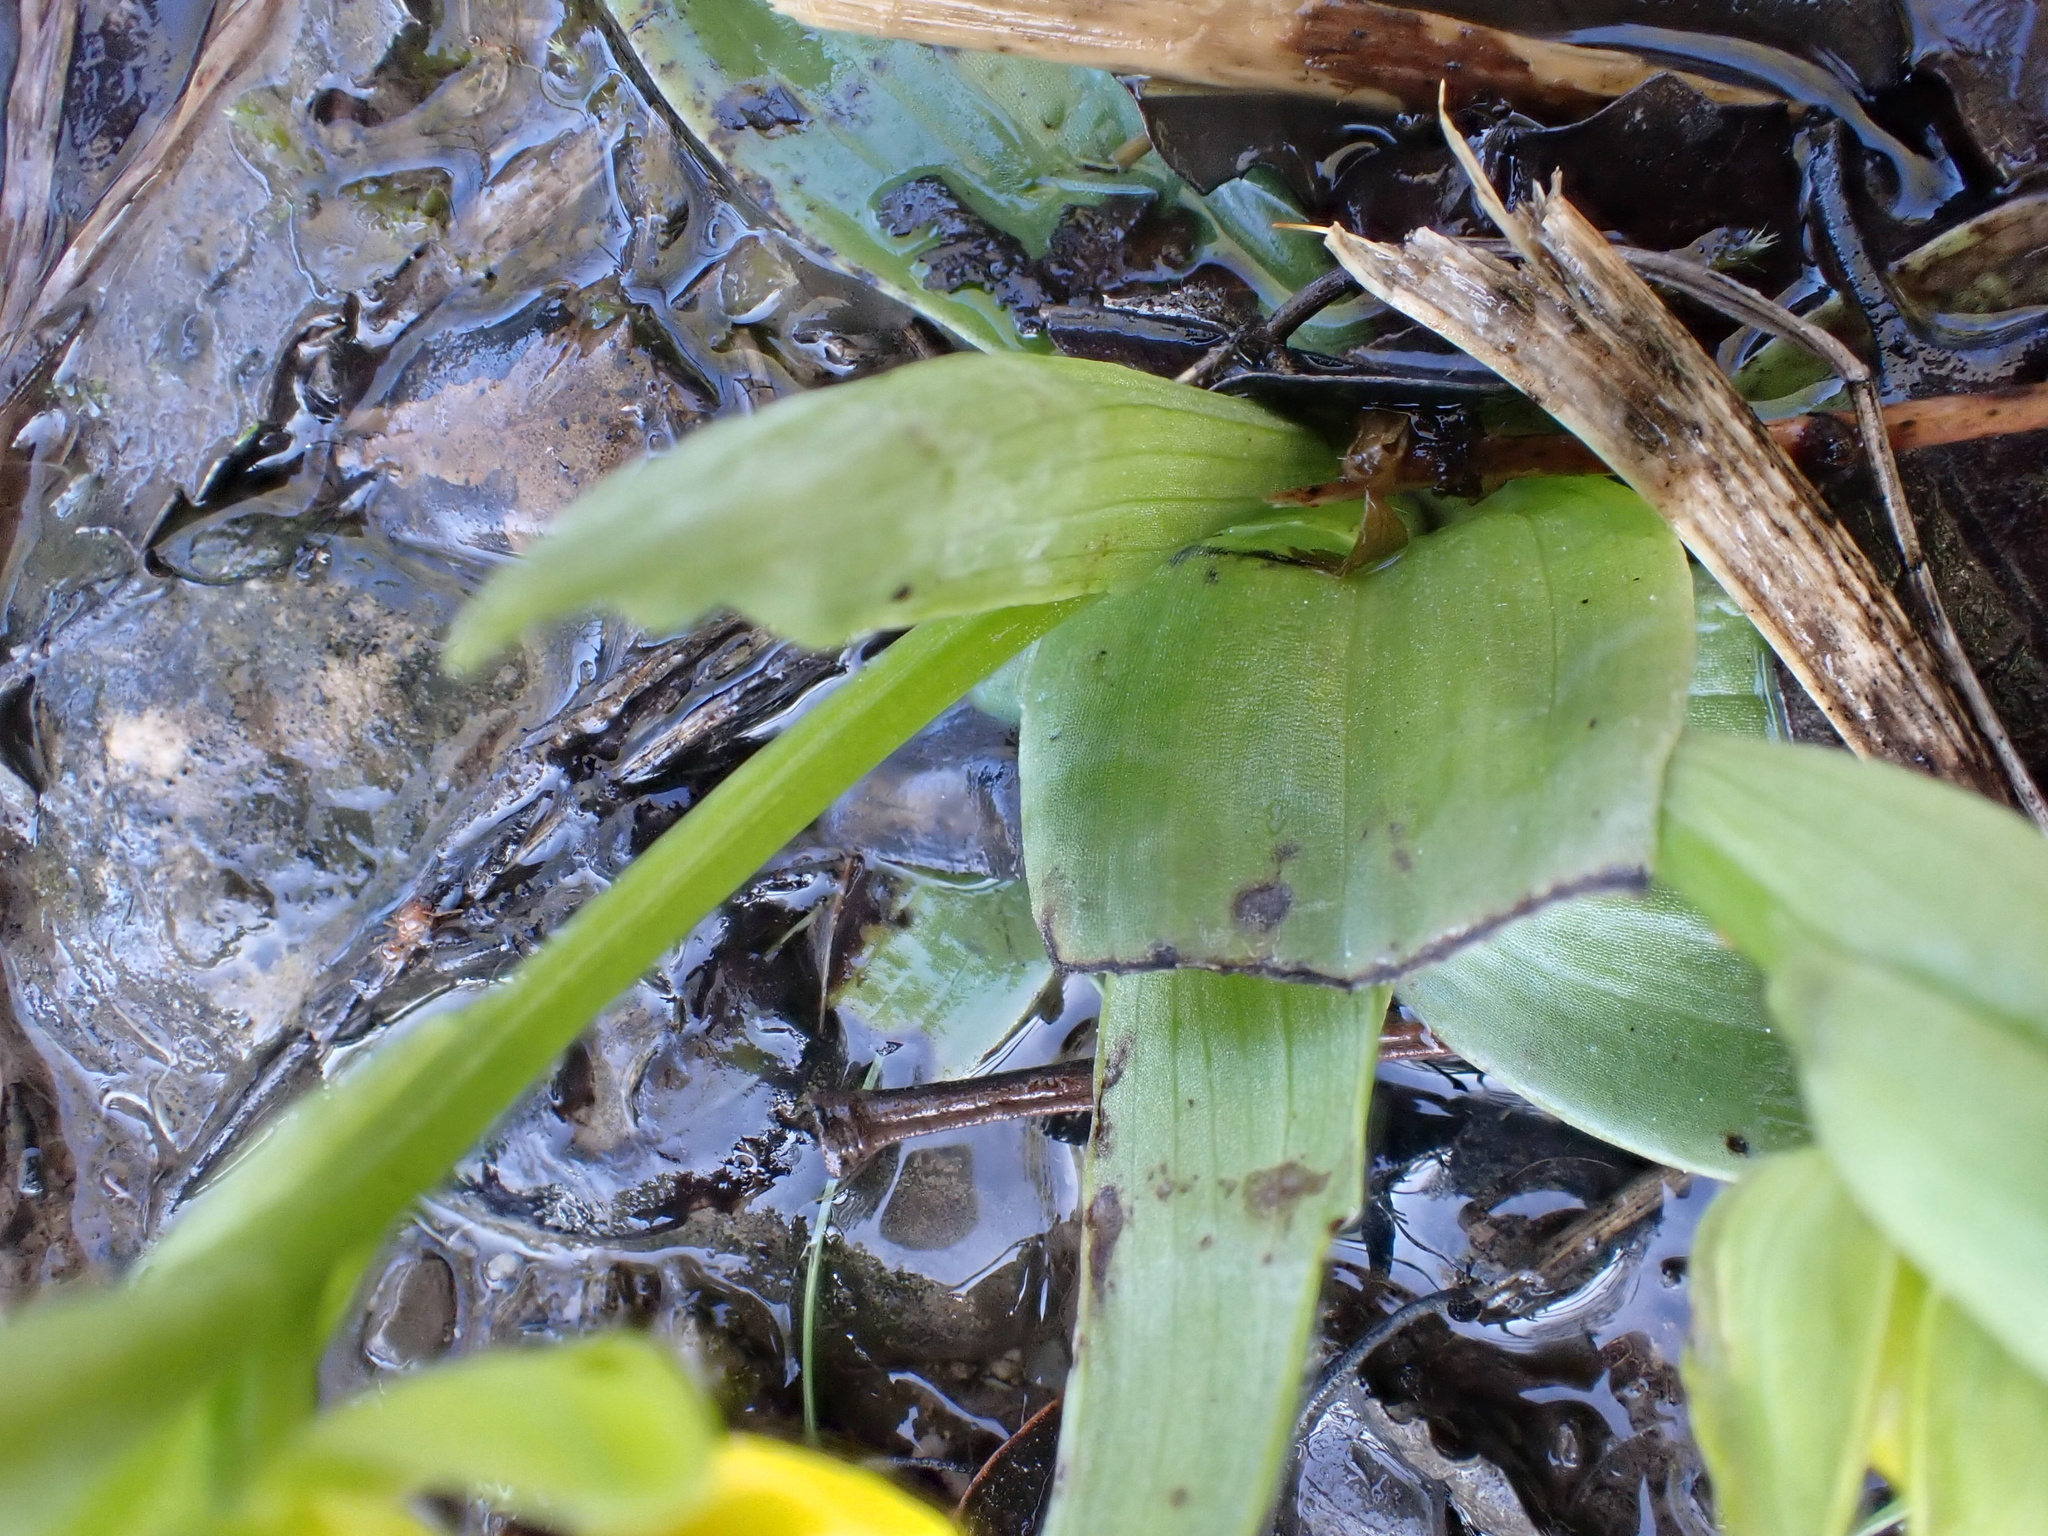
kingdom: Plantae
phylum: Tracheophyta
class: Liliopsida
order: Asparagales
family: Orchidaceae
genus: Ophrys
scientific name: Ophrys lutea
